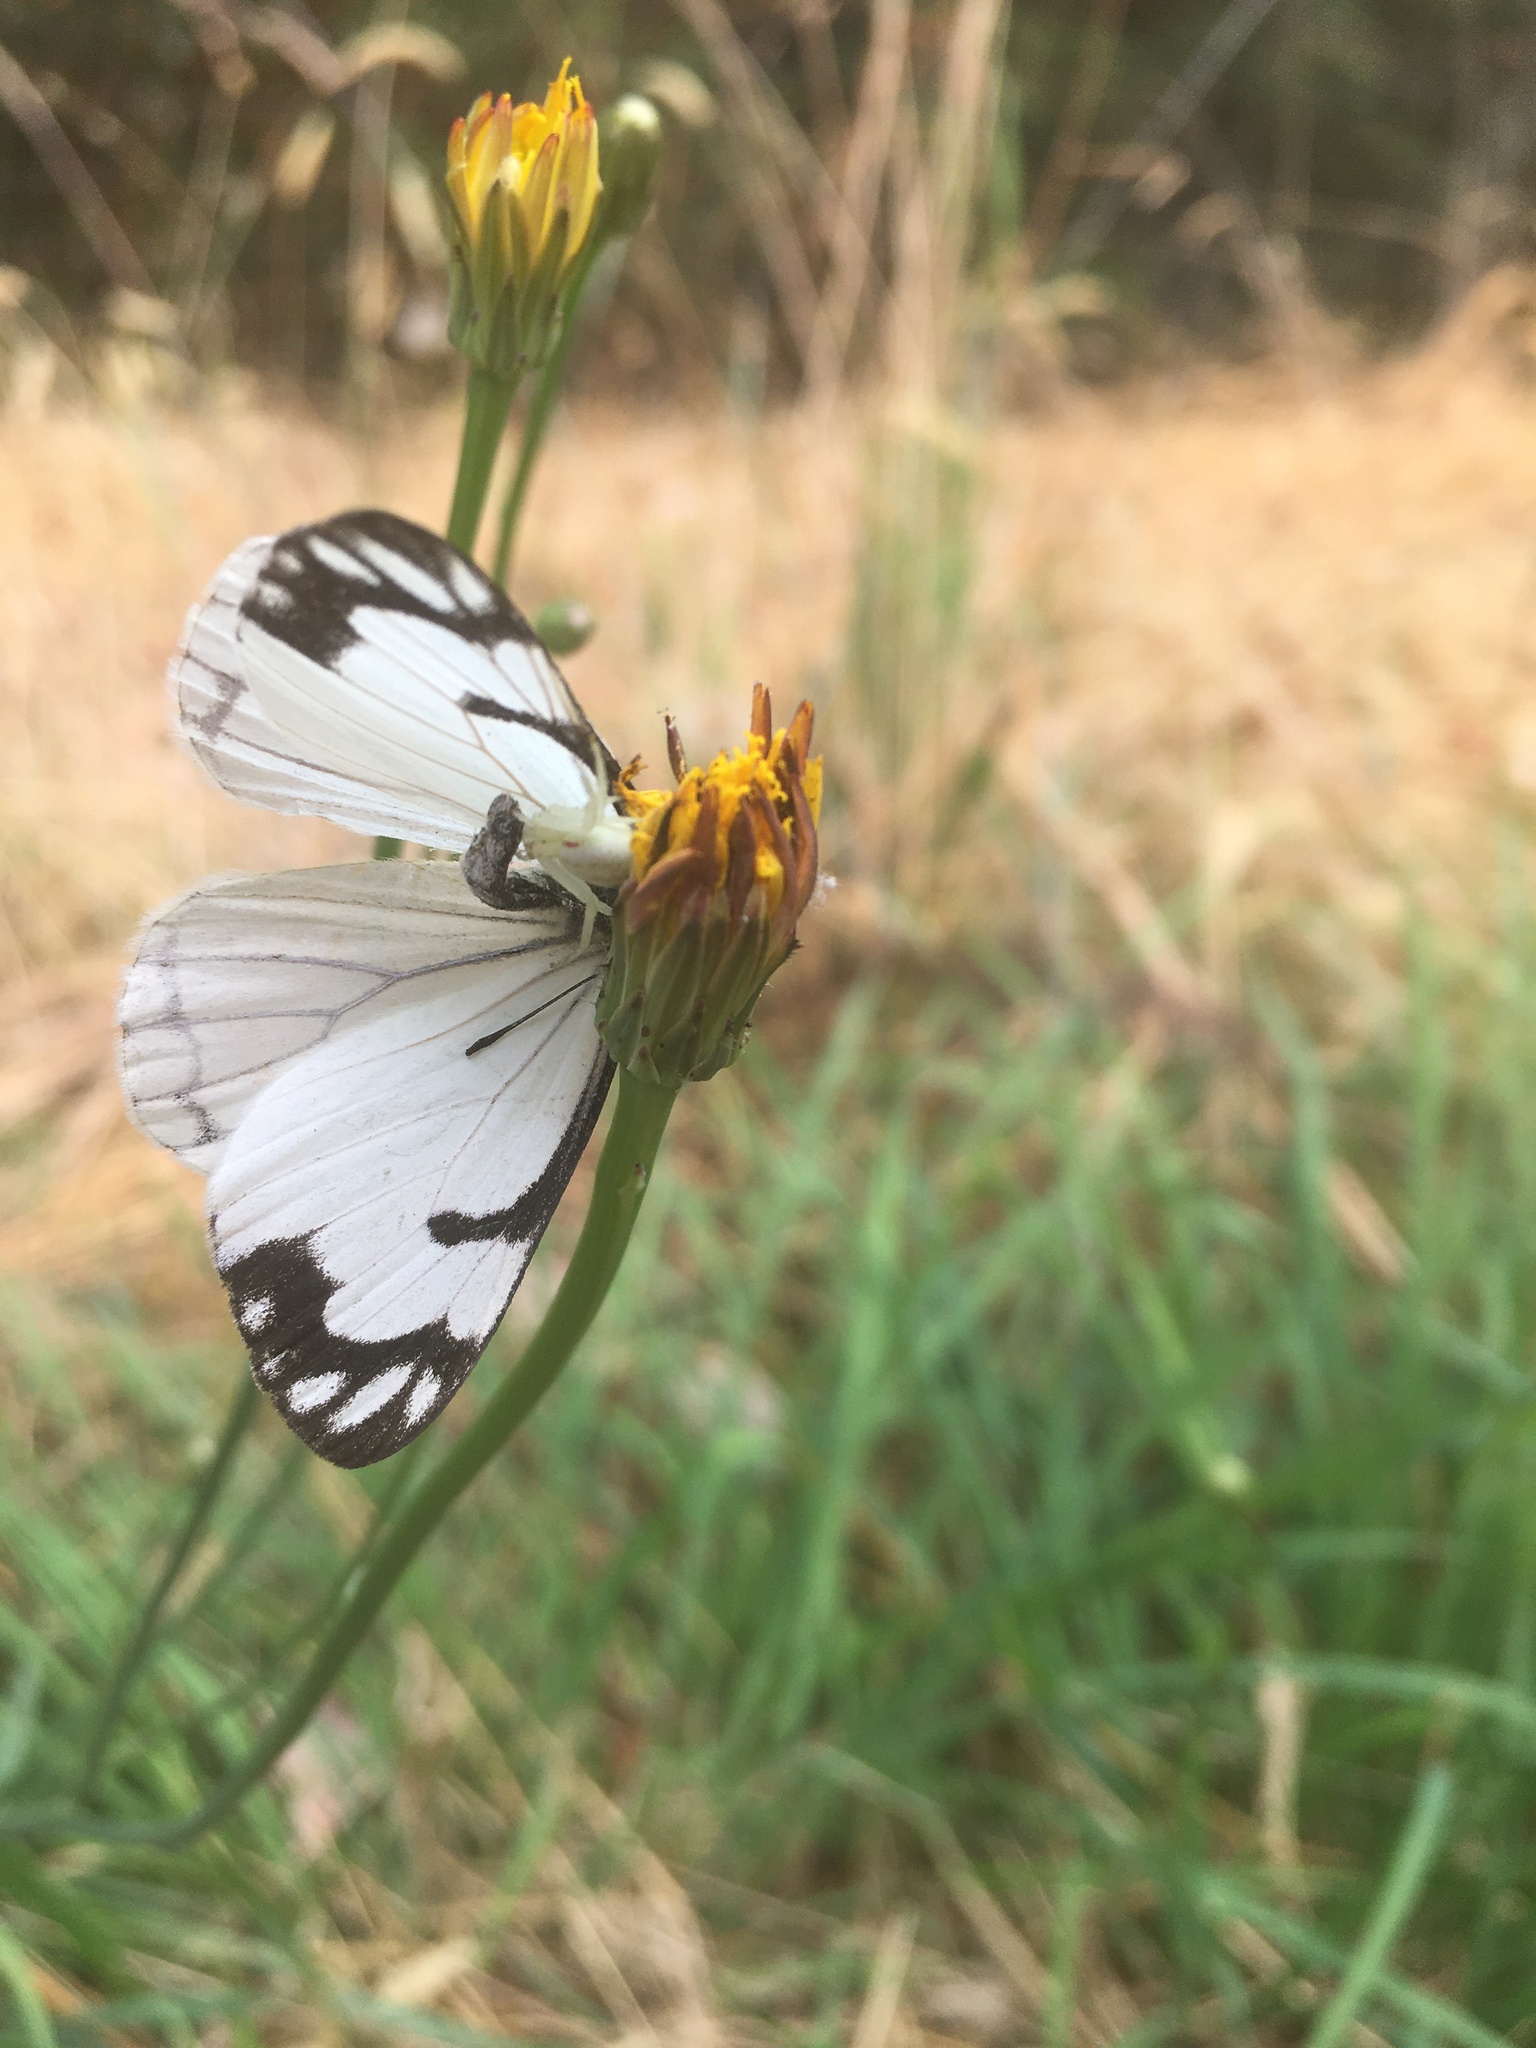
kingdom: Animalia
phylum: Arthropoda
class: Arachnida
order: Araneae
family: Thomisidae
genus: Misumena
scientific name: Misumena vatia
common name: Goldenrod crab spider
